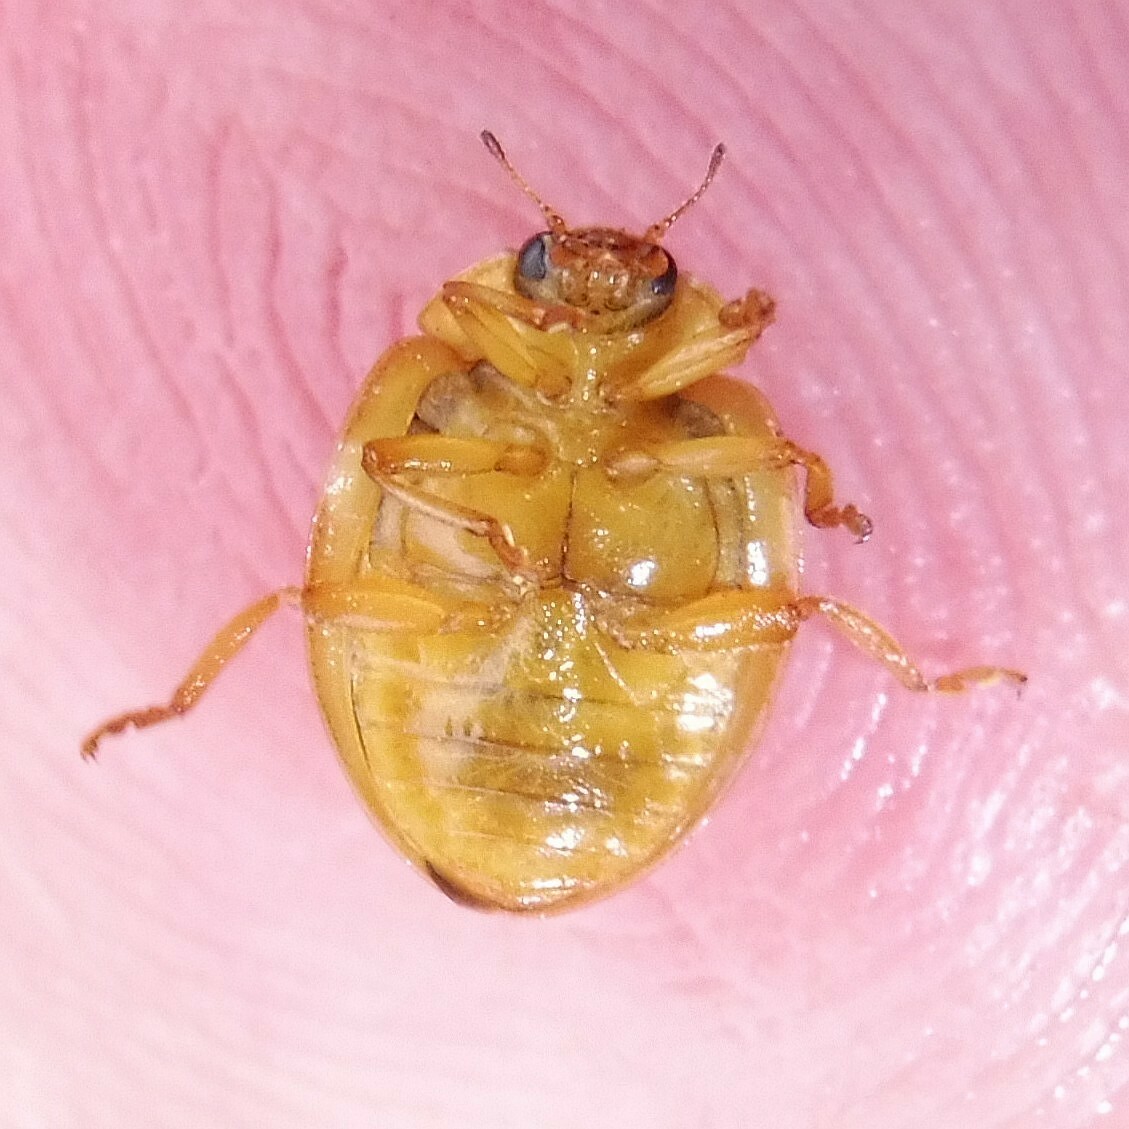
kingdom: Animalia
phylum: Arthropoda
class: Insecta
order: Coleoptera
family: Coccinellidae
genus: Calvia
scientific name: Calvia quatuordecimguttata
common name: Cream-spot ladybird
